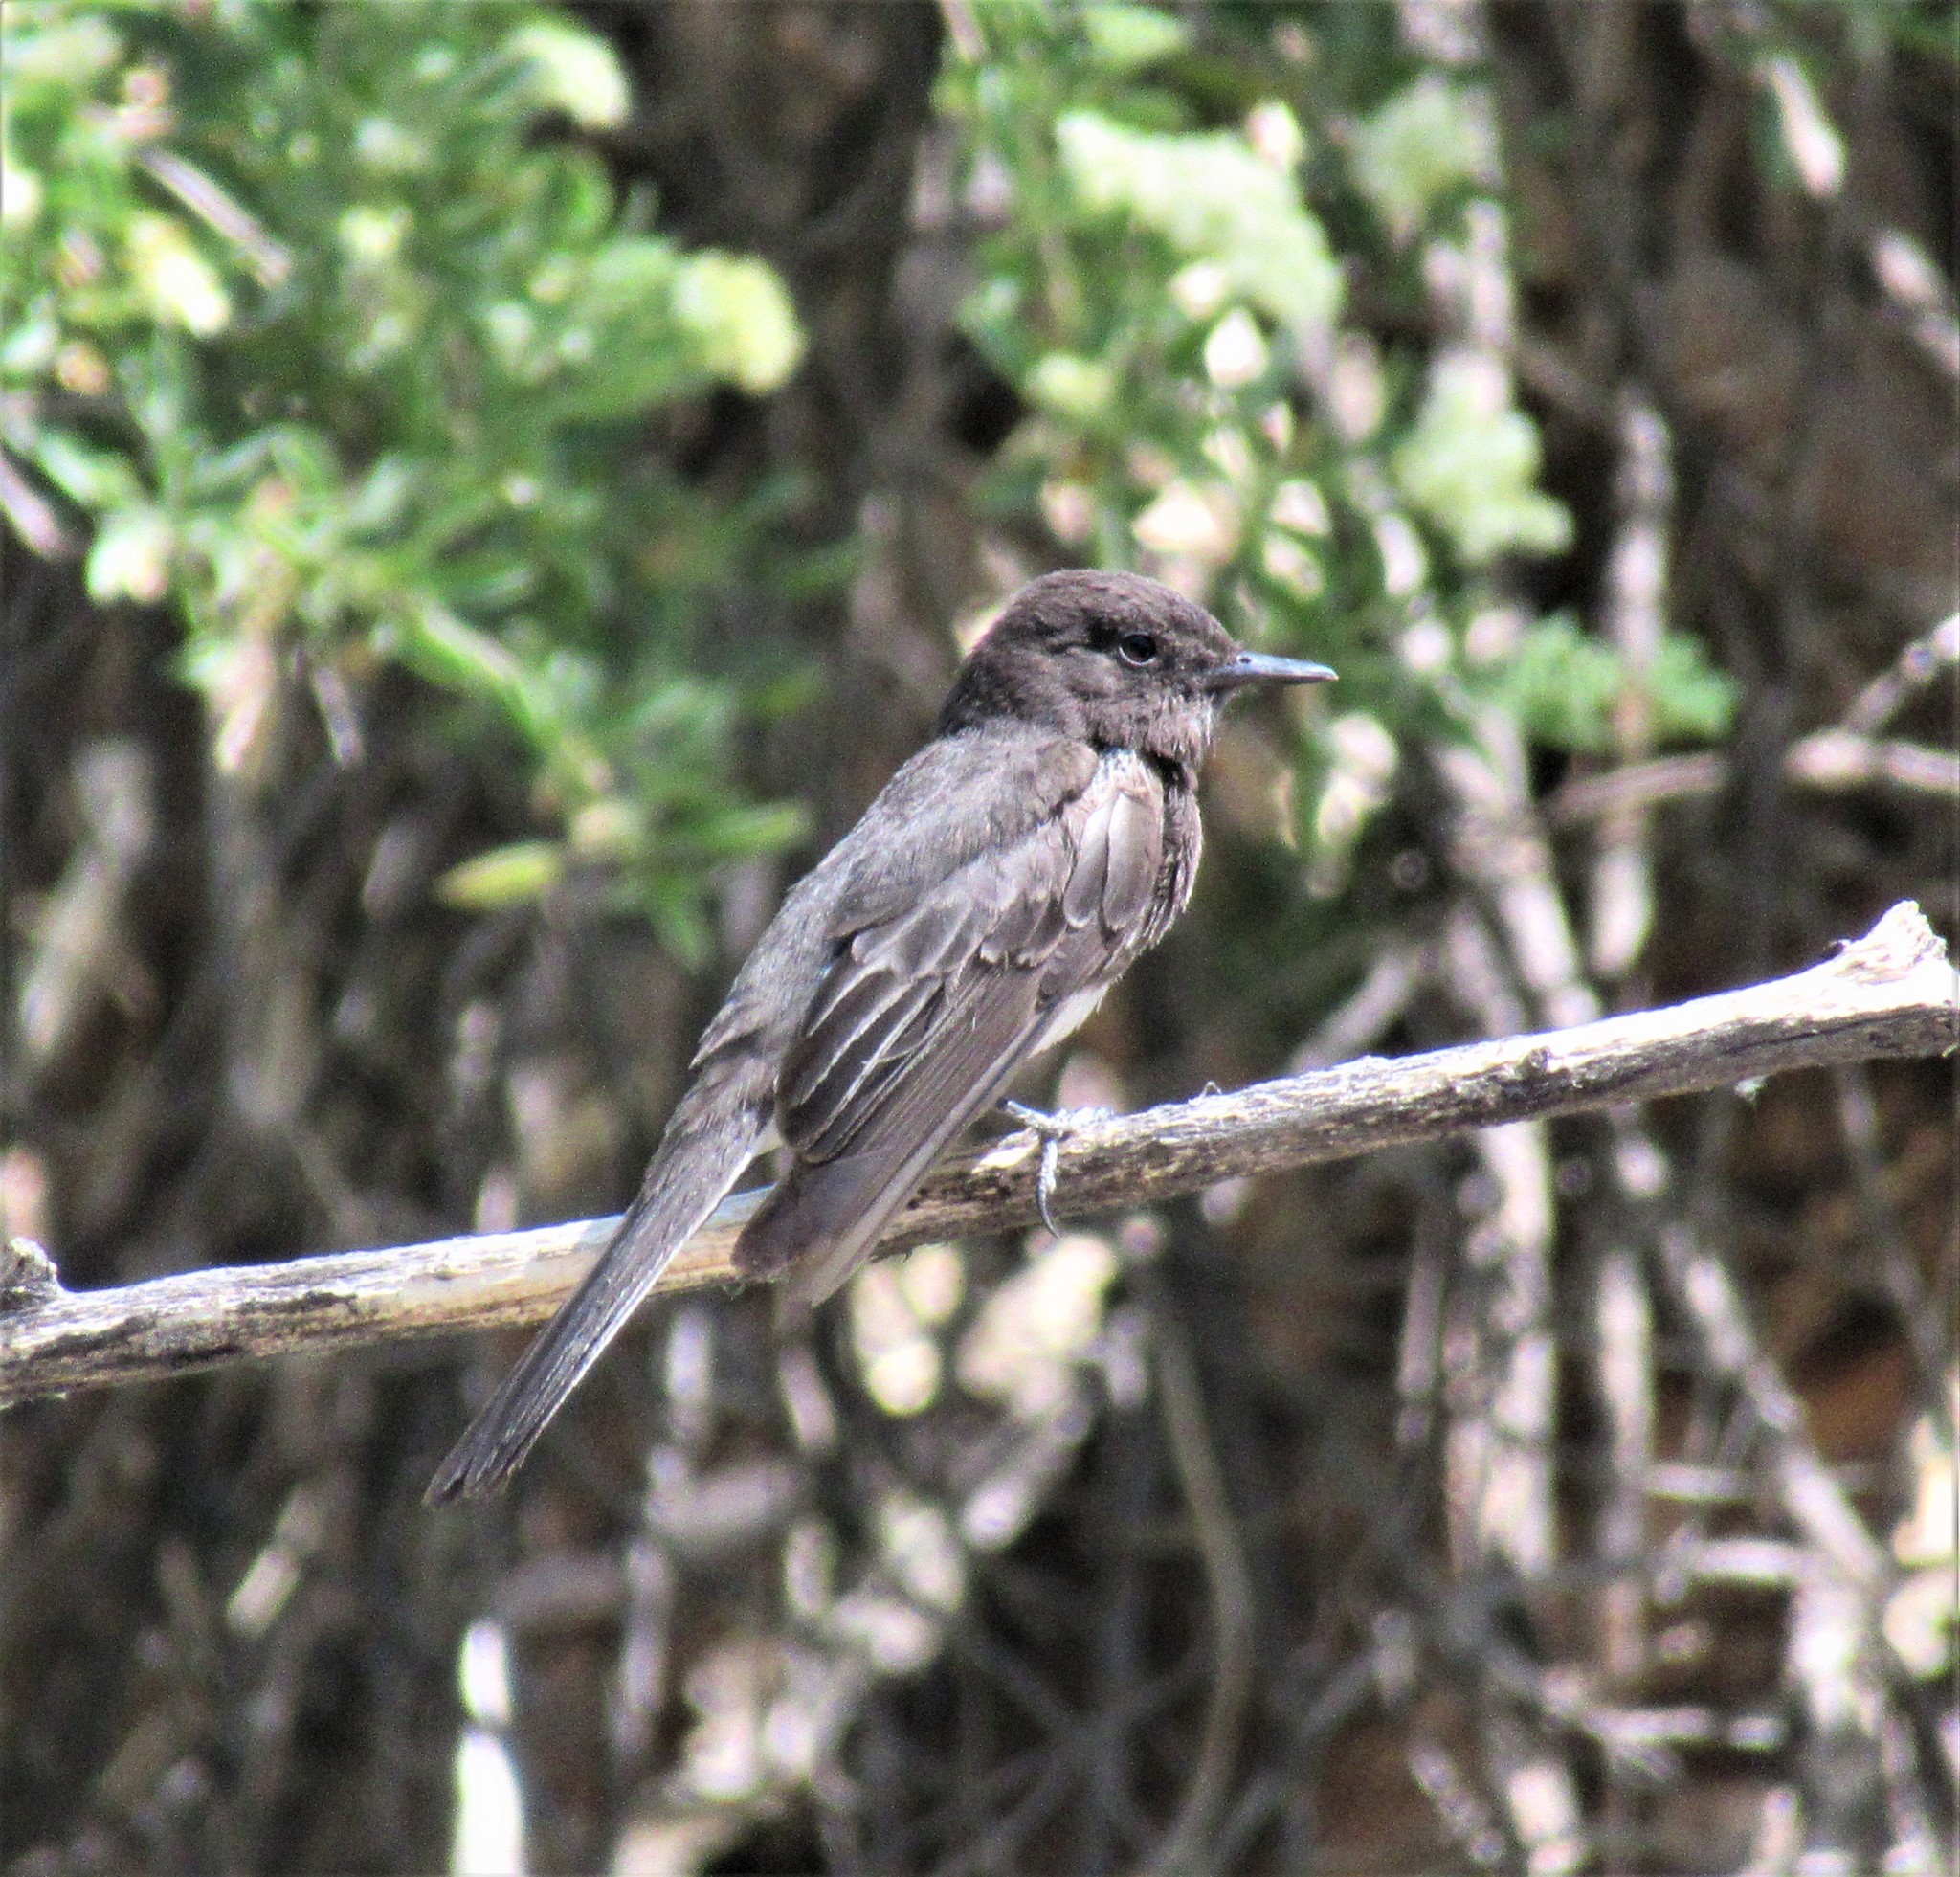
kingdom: Animalia
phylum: Chordata
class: Aves
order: Passeriformes
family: Tyrannidae
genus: Sayornis
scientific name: Sayornis nigricans
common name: Black phoebe
